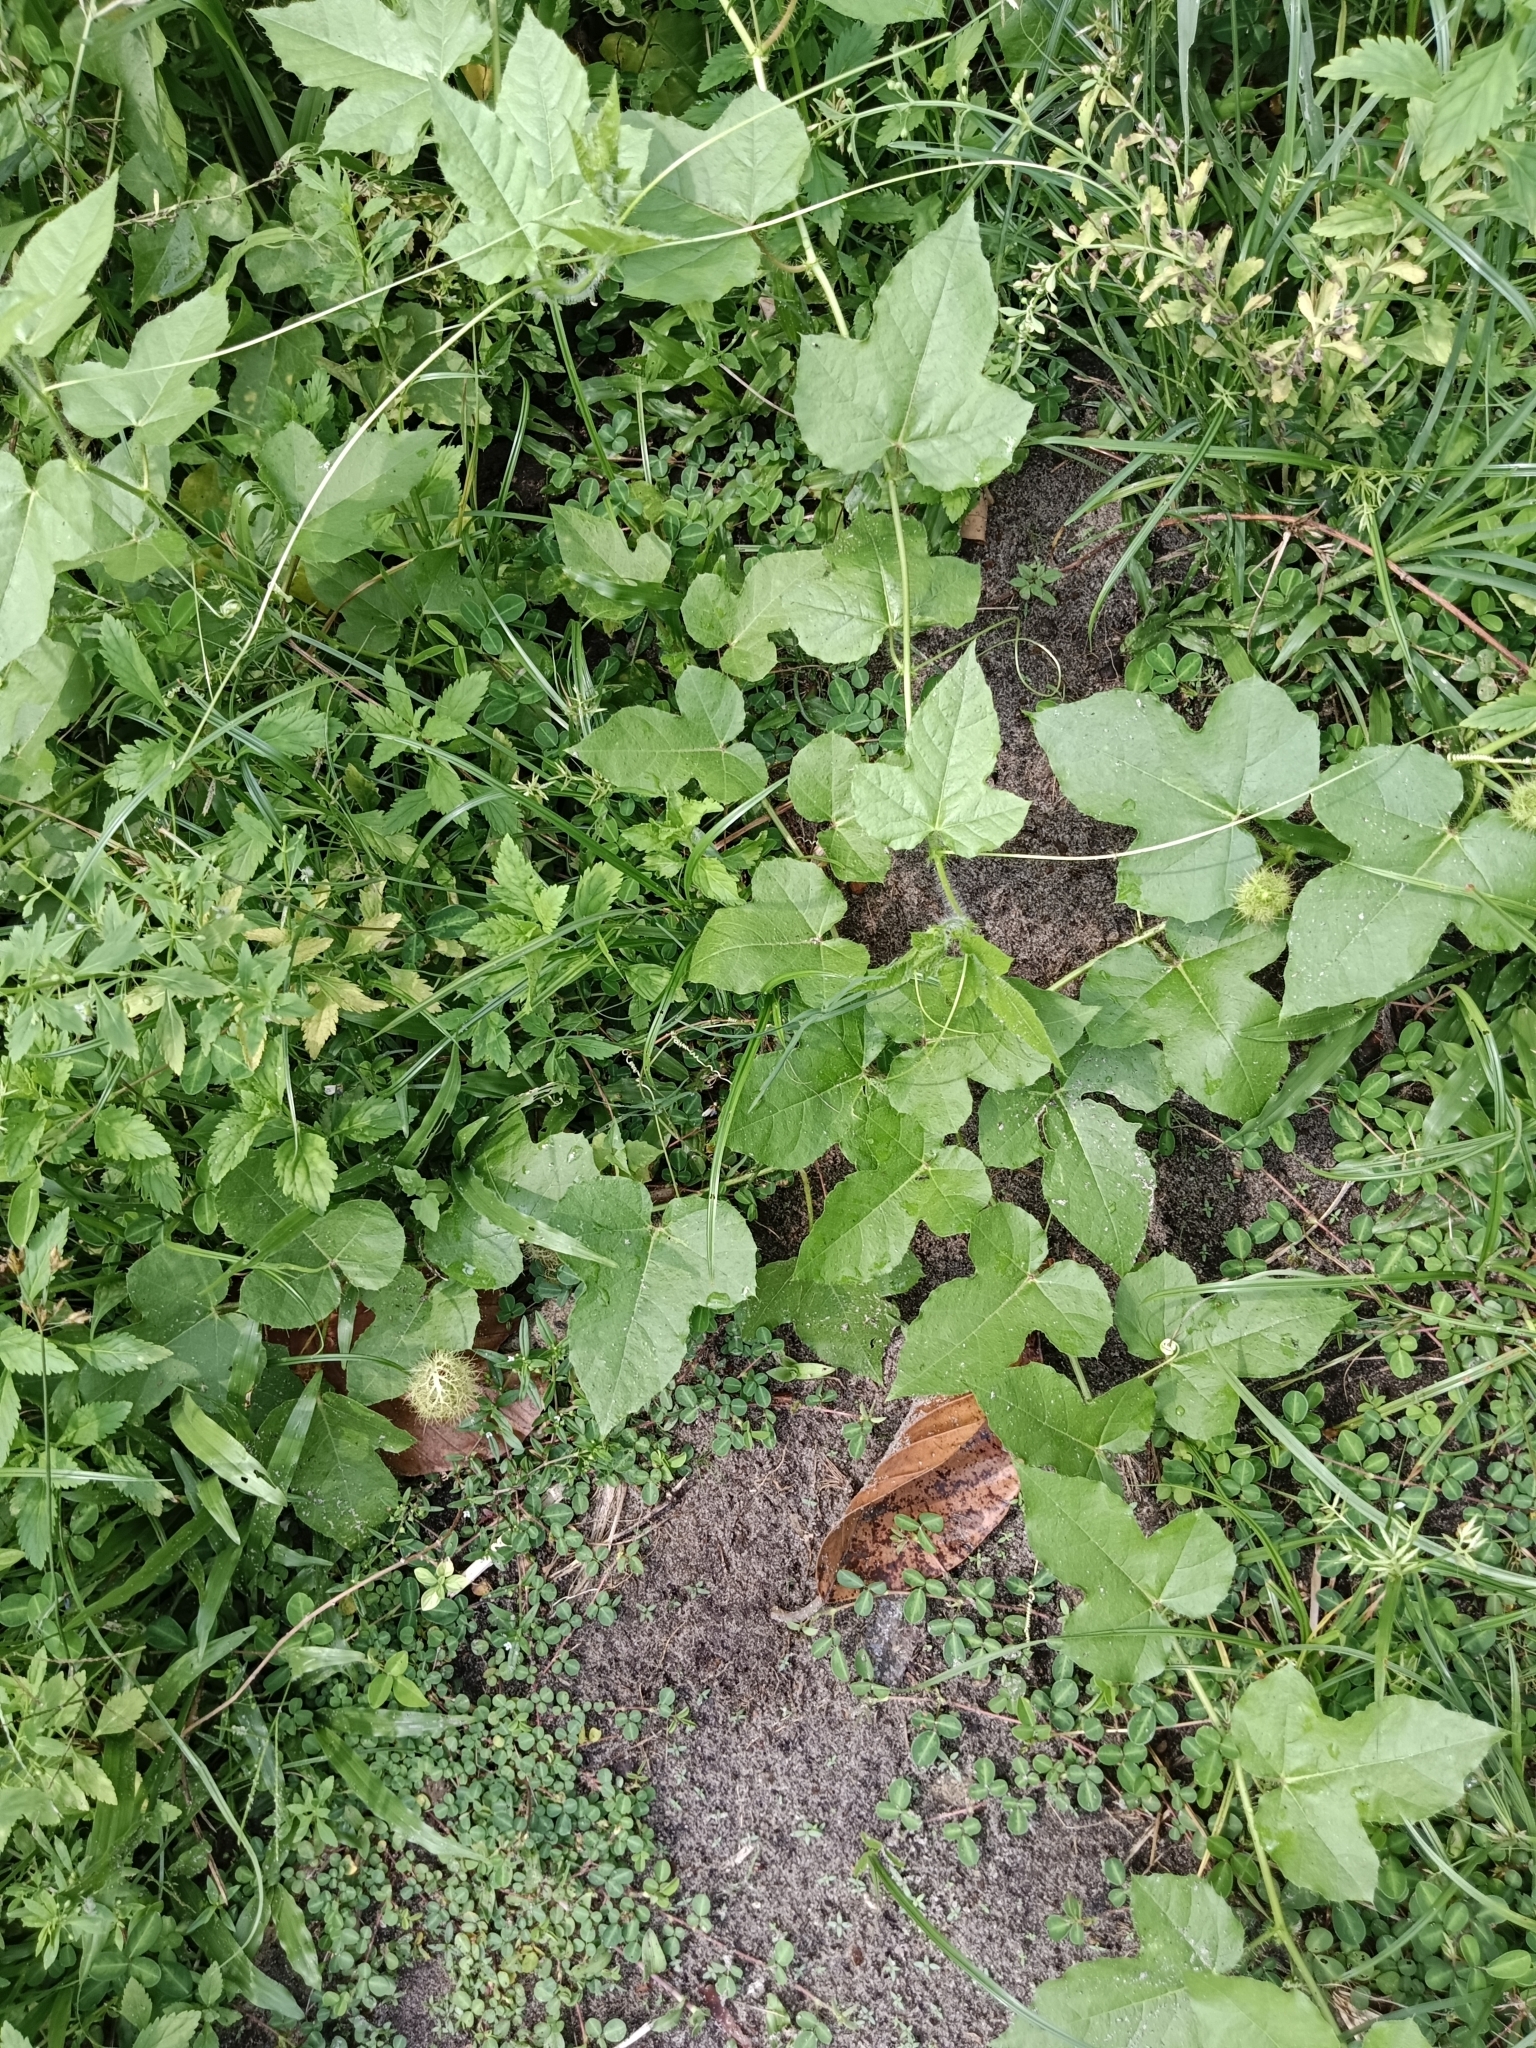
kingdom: Plantae
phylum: Tracheophyta
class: Magnoliopsida
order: Malpighiales
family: Passifloraceae
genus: Passiflora
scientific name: Passiflora foetida
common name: Fetid passionflower
